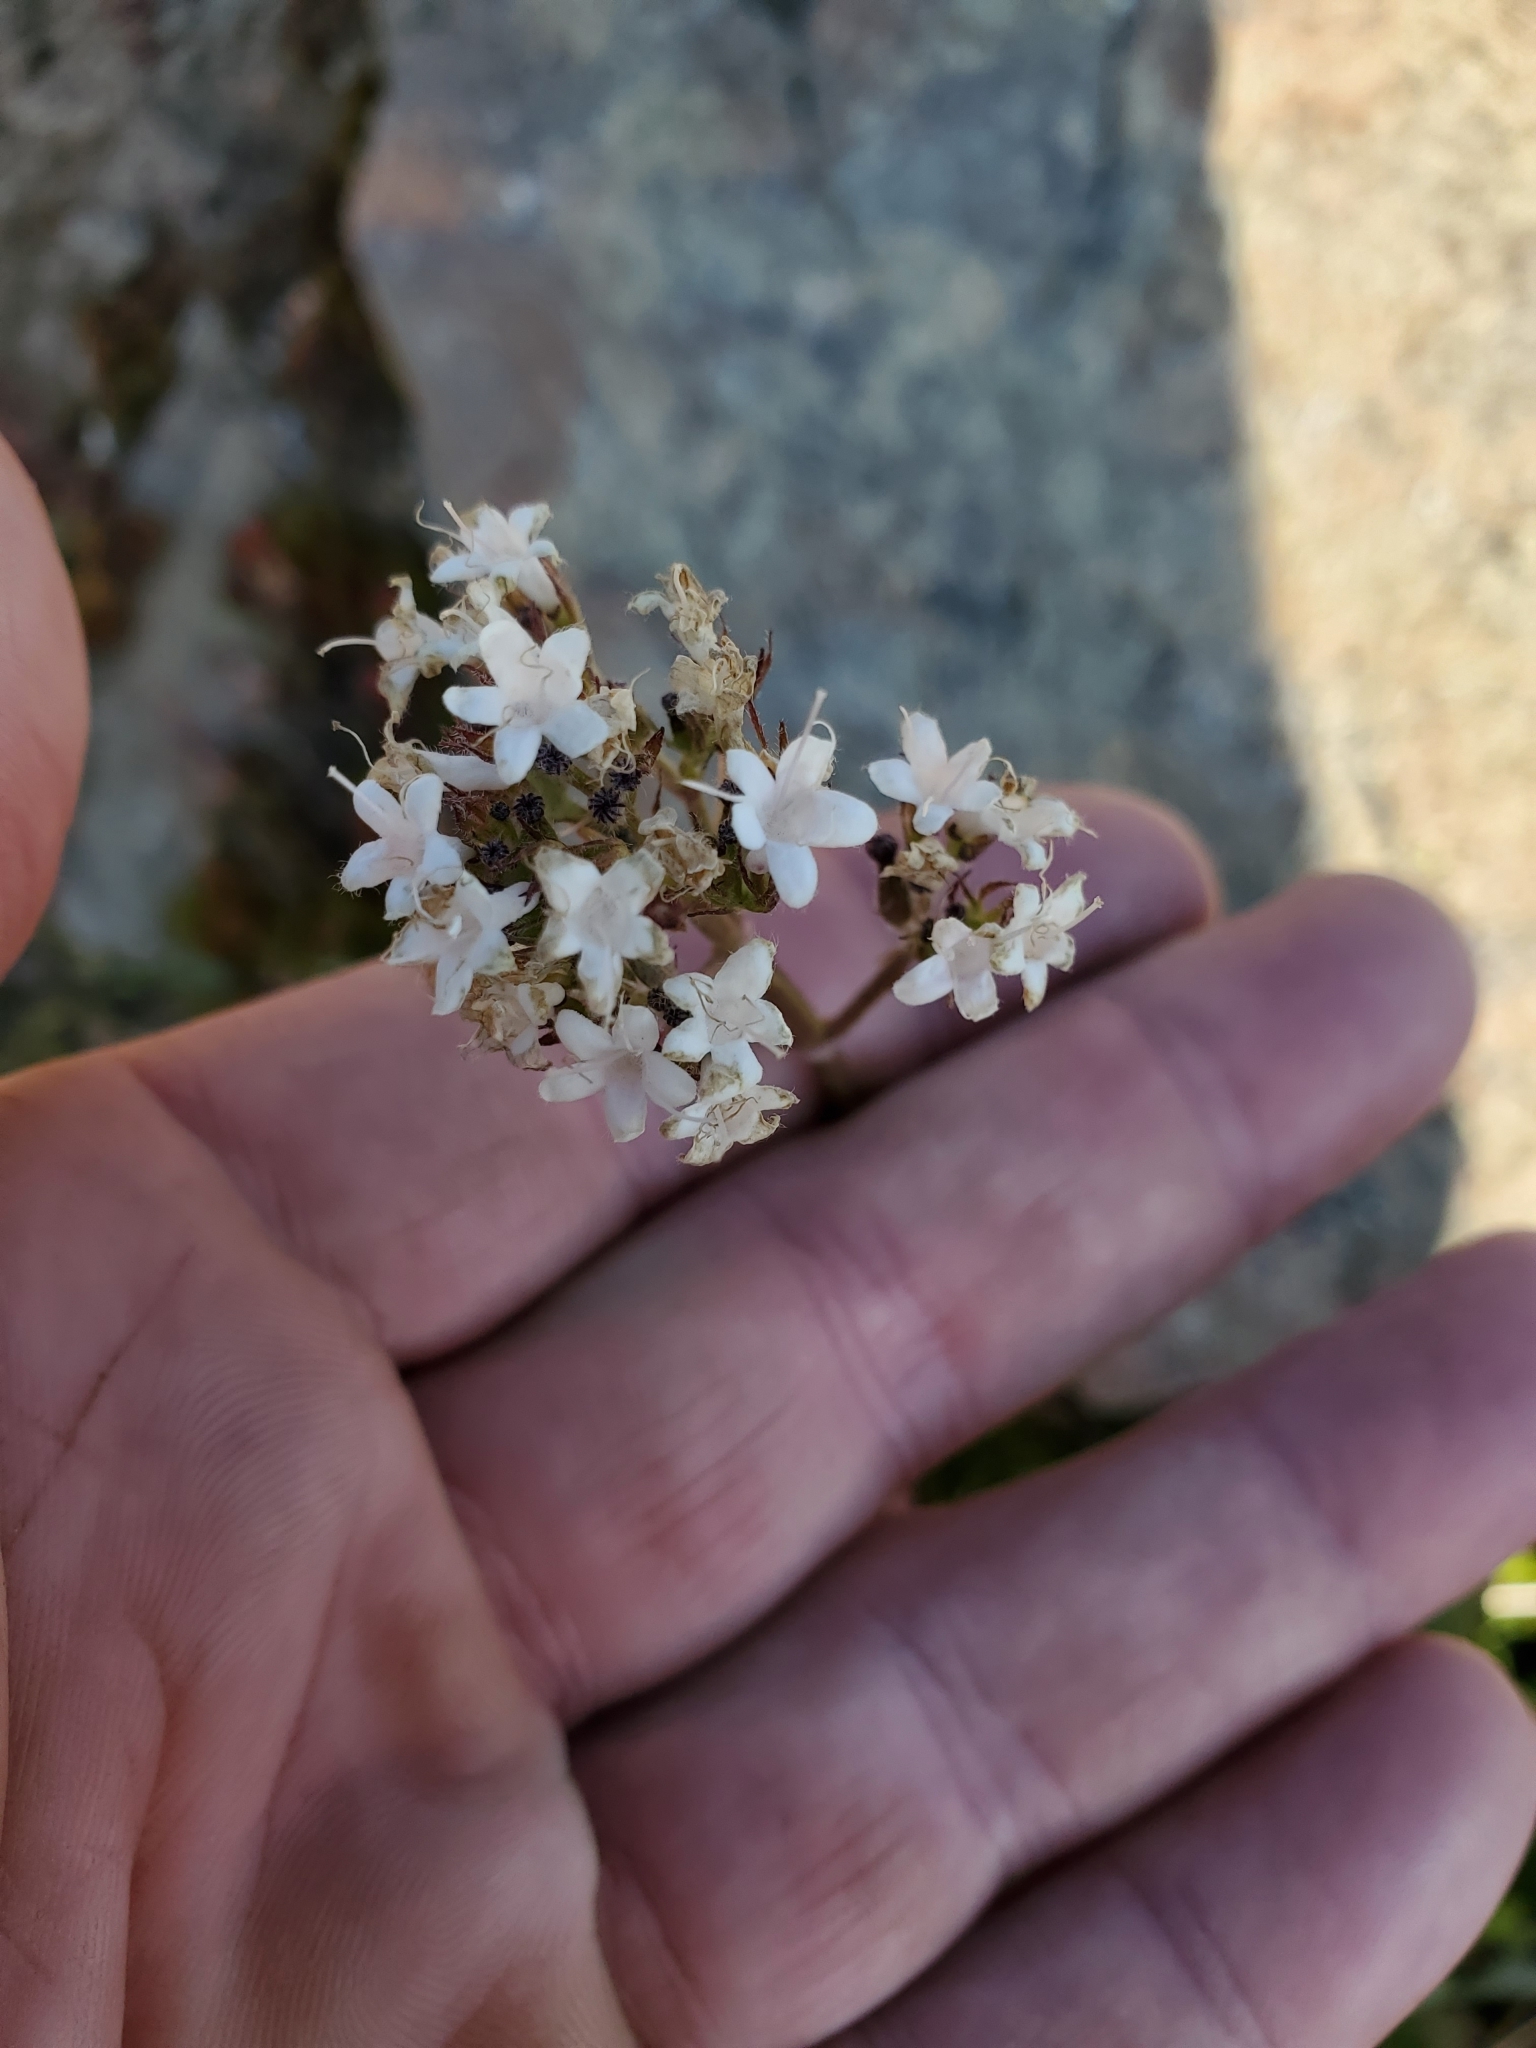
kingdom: Plantae
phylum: Tracheophyta
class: Magnoliopsida
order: Dipsacales
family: Caprifoliaceae
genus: Valeriana
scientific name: Valeriana sitchensis
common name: Pacific valerian
